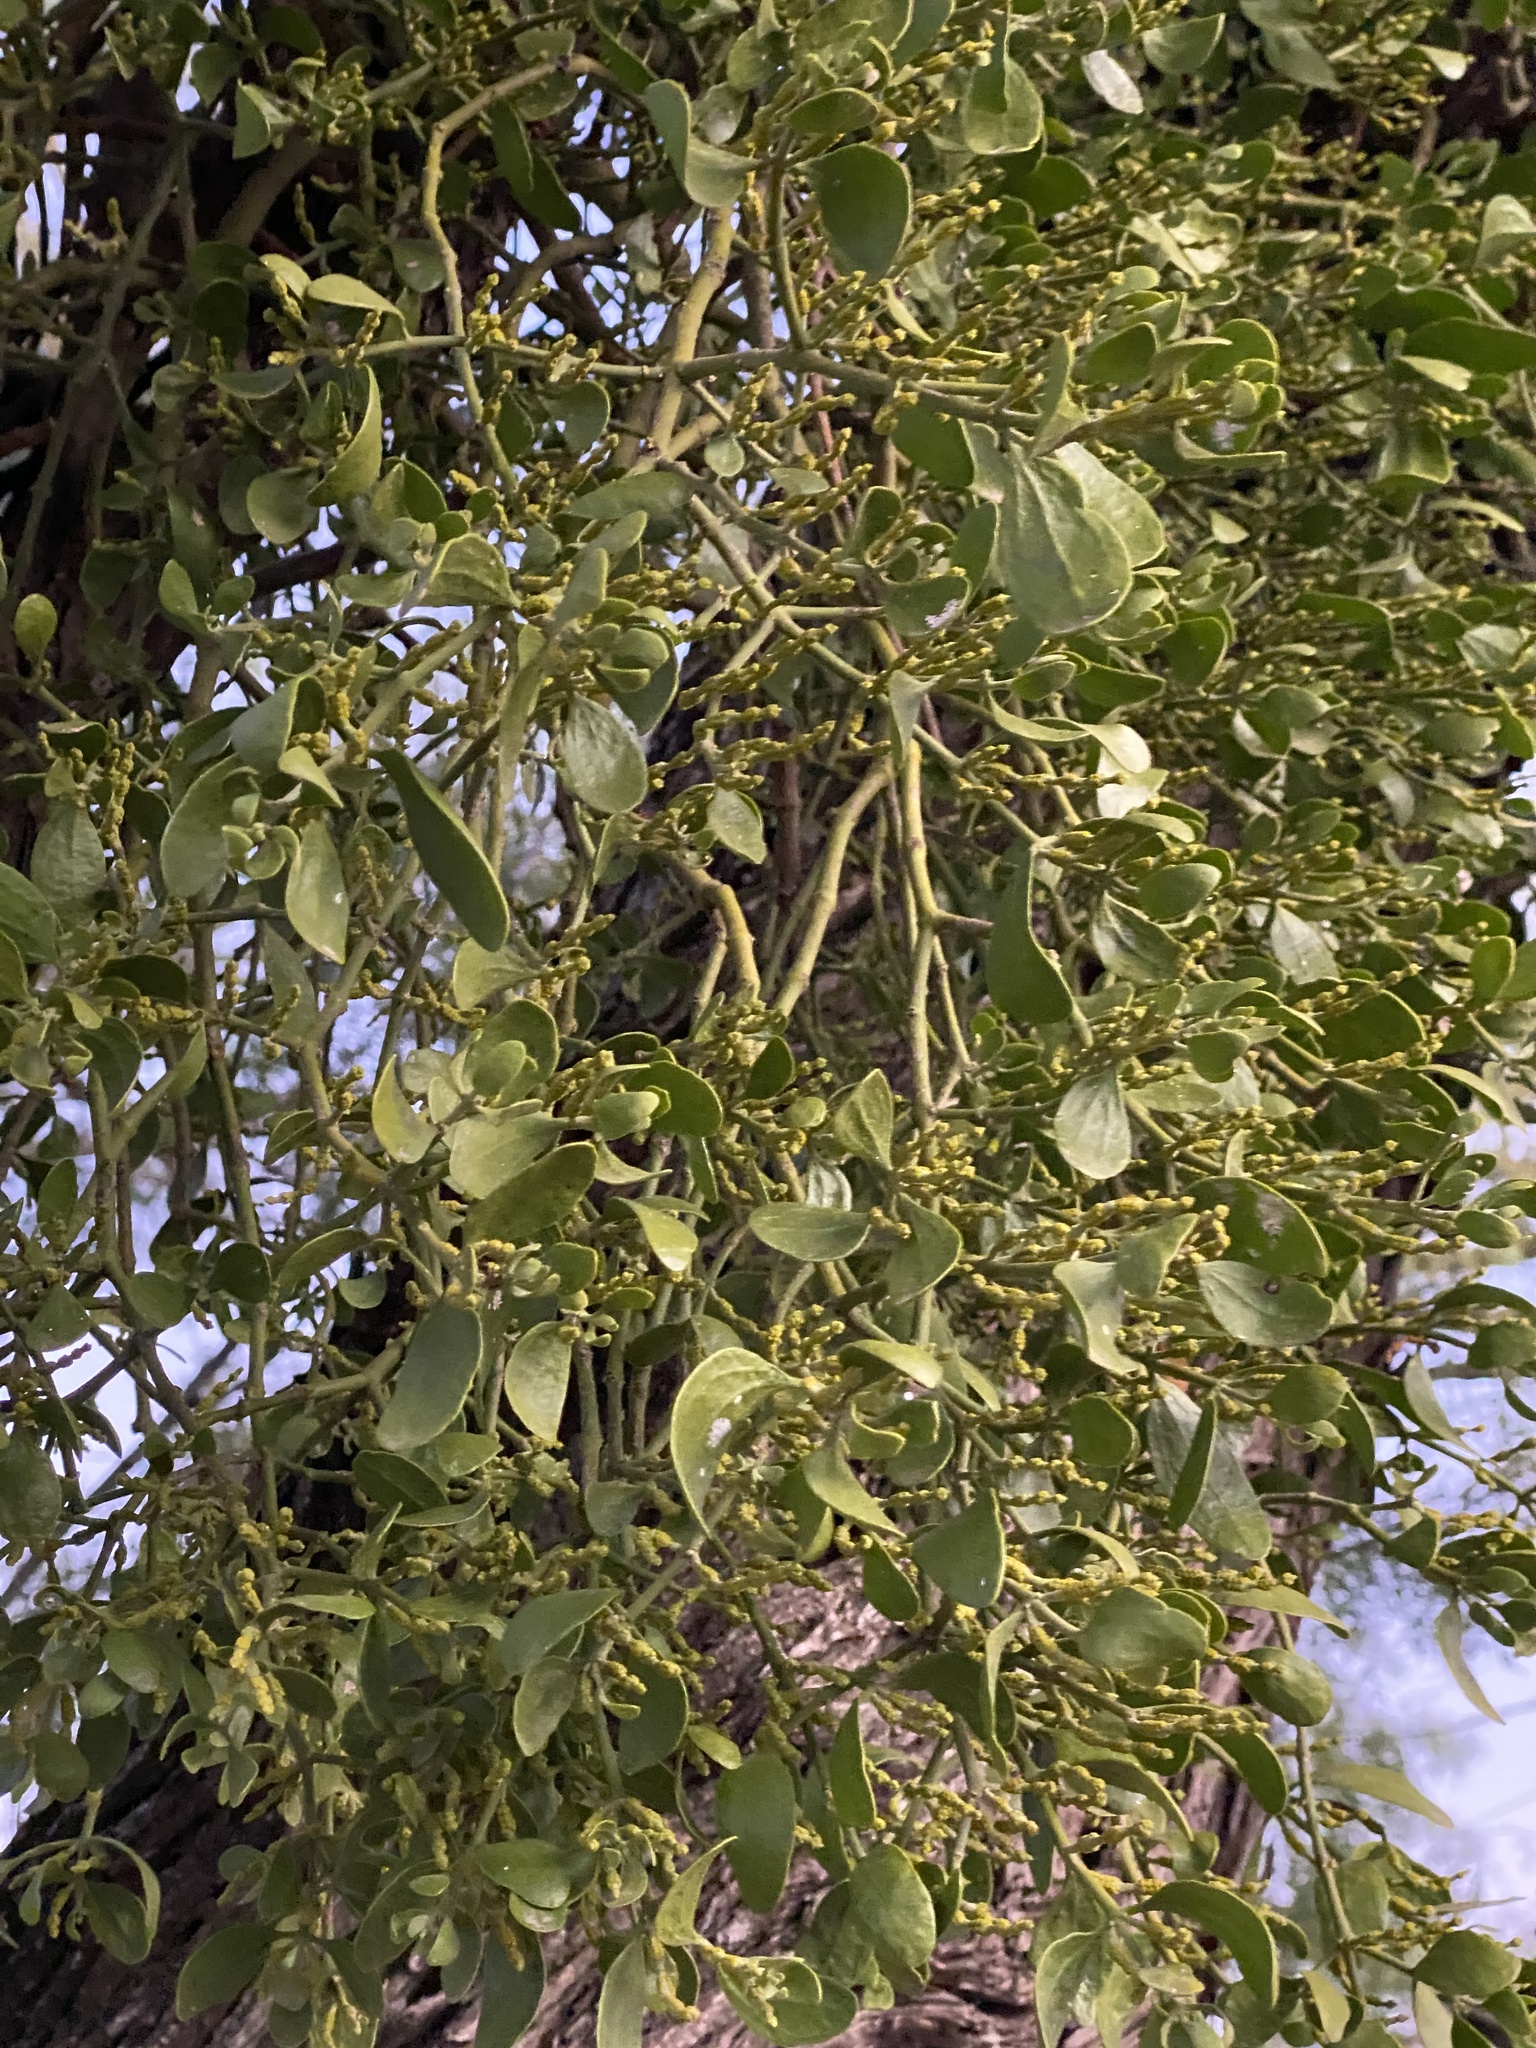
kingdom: Plantae
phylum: Tracheophyta
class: Magnoliopsida
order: Santalales
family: Viscaceae
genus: Phoradendron
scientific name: Phoradendron leucarpum
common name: Pacific mistletoe
